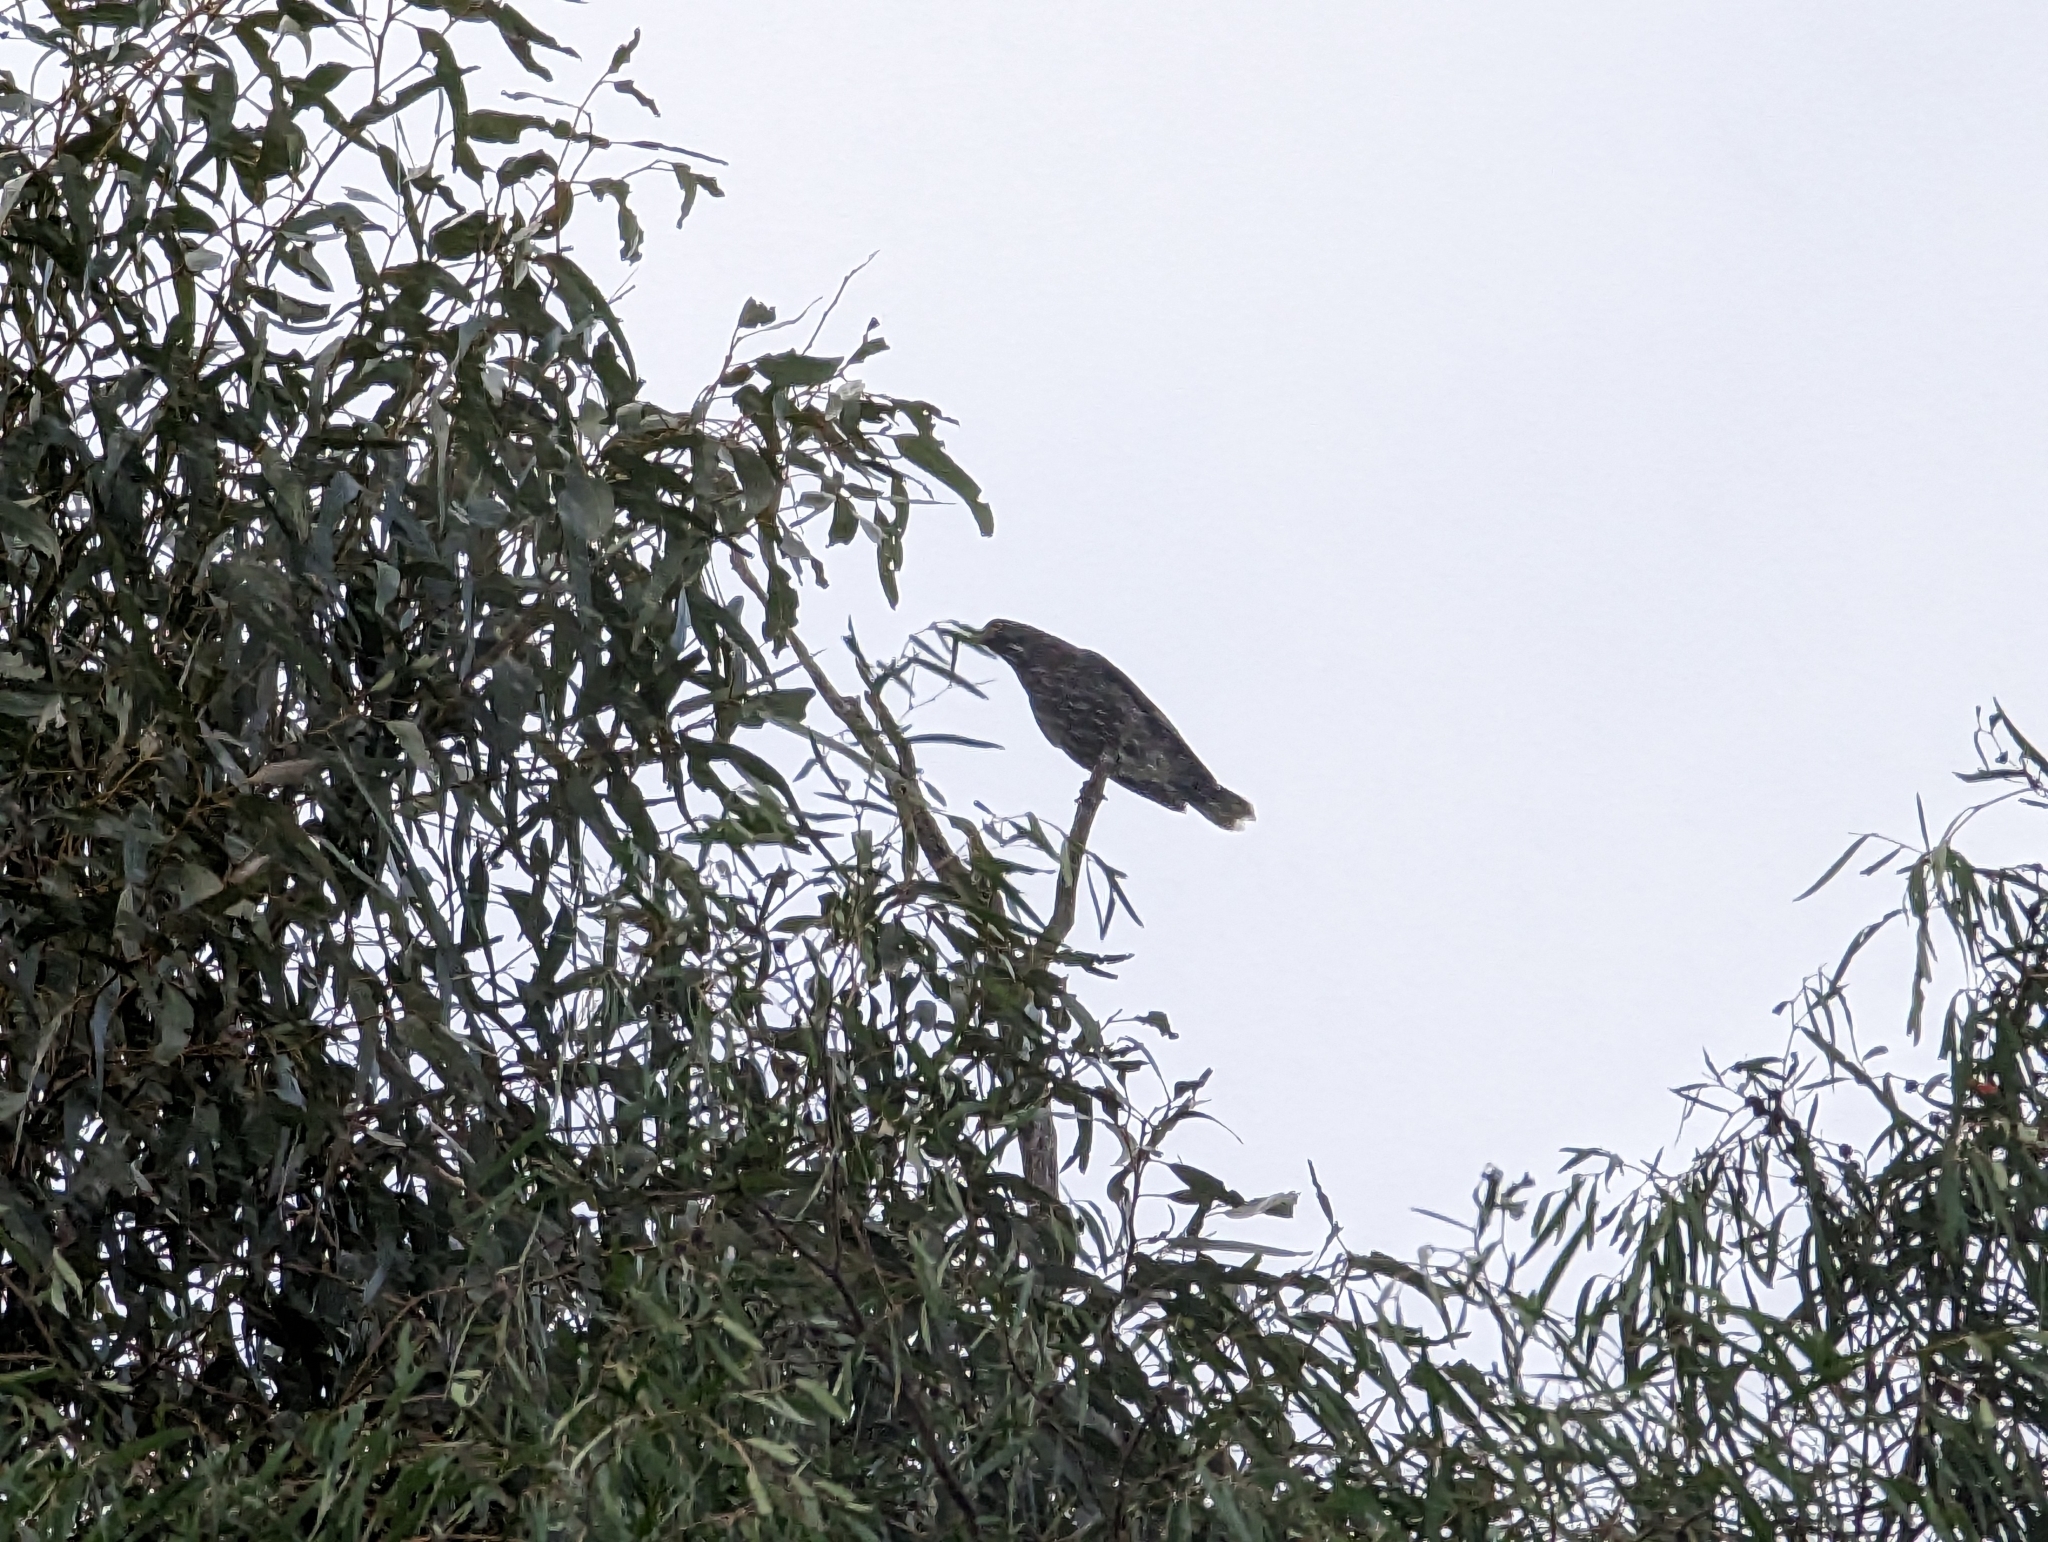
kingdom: Animalia
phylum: Chordata
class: Aves
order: Passeriformes
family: Cracticidae
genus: Strepera
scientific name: Strepera versicolor
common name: Grey currawong
